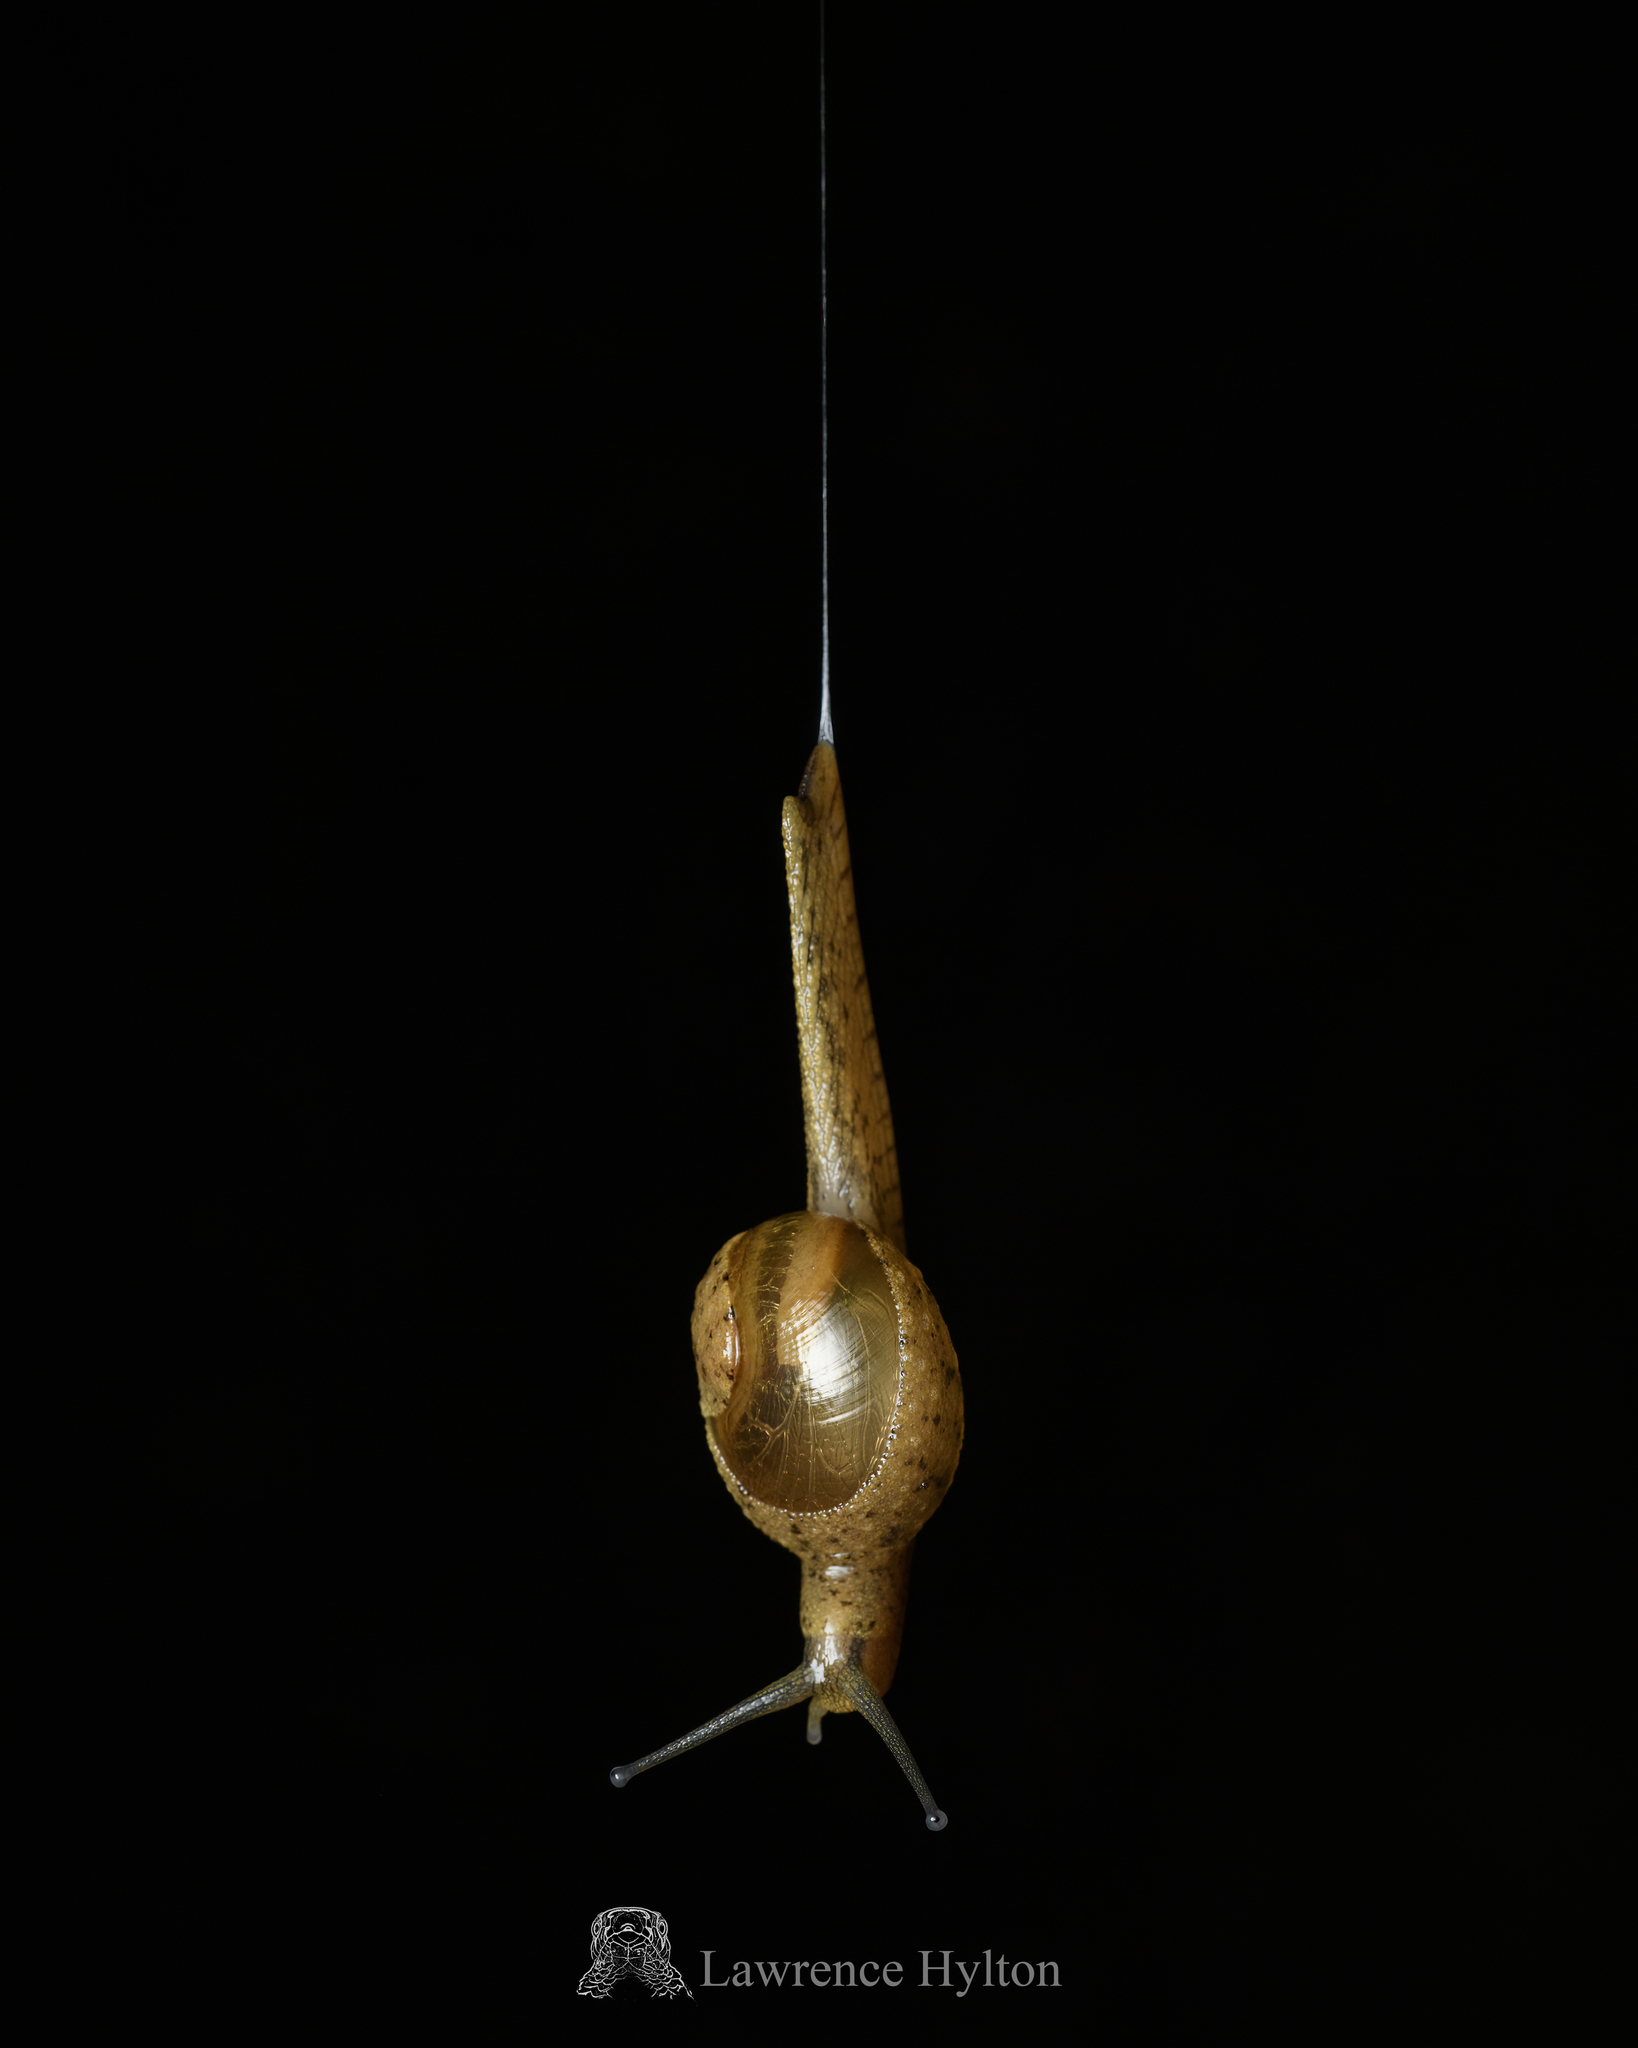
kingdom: Animalia
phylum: Mollusca
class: Gastropoda
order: Stylommatophora
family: Ariophantidae
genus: Megaustenia
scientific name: Megaustenia imperator
